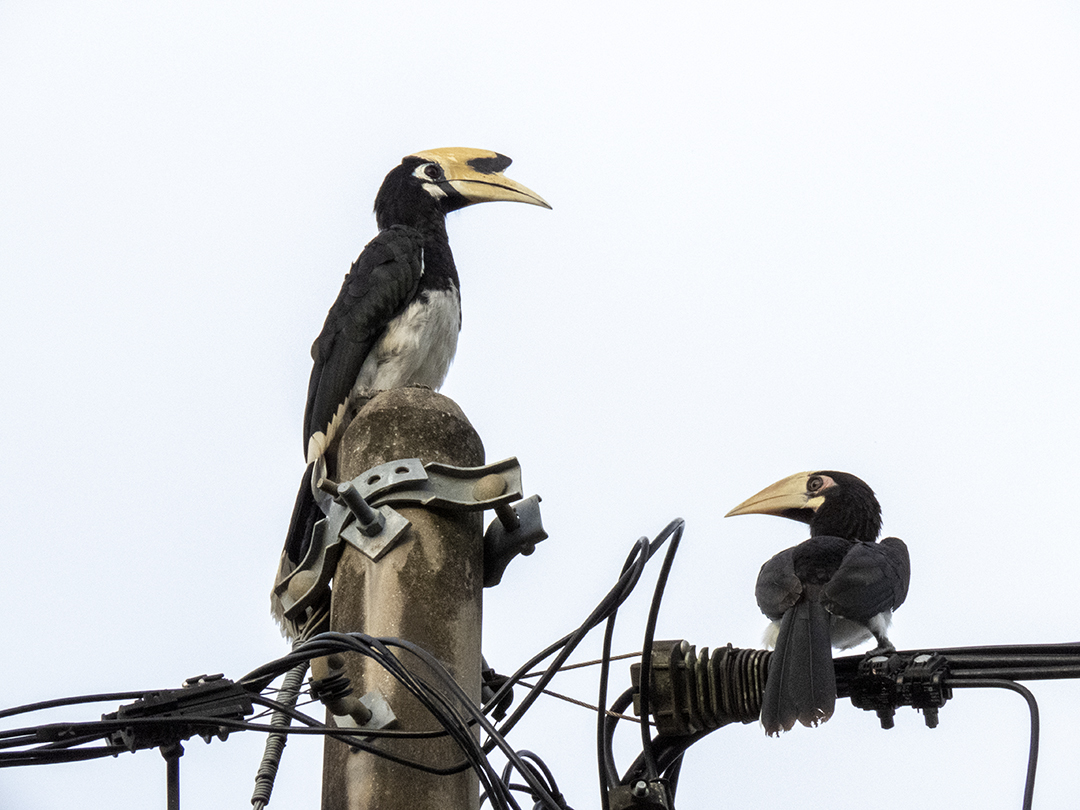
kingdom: Animalia
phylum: Chordata
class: Aves
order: Bucerotiformes
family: Bucerotidae
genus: Anthracoceros
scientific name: Anthracoceros albirostris
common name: Oriental pied-hornbill
